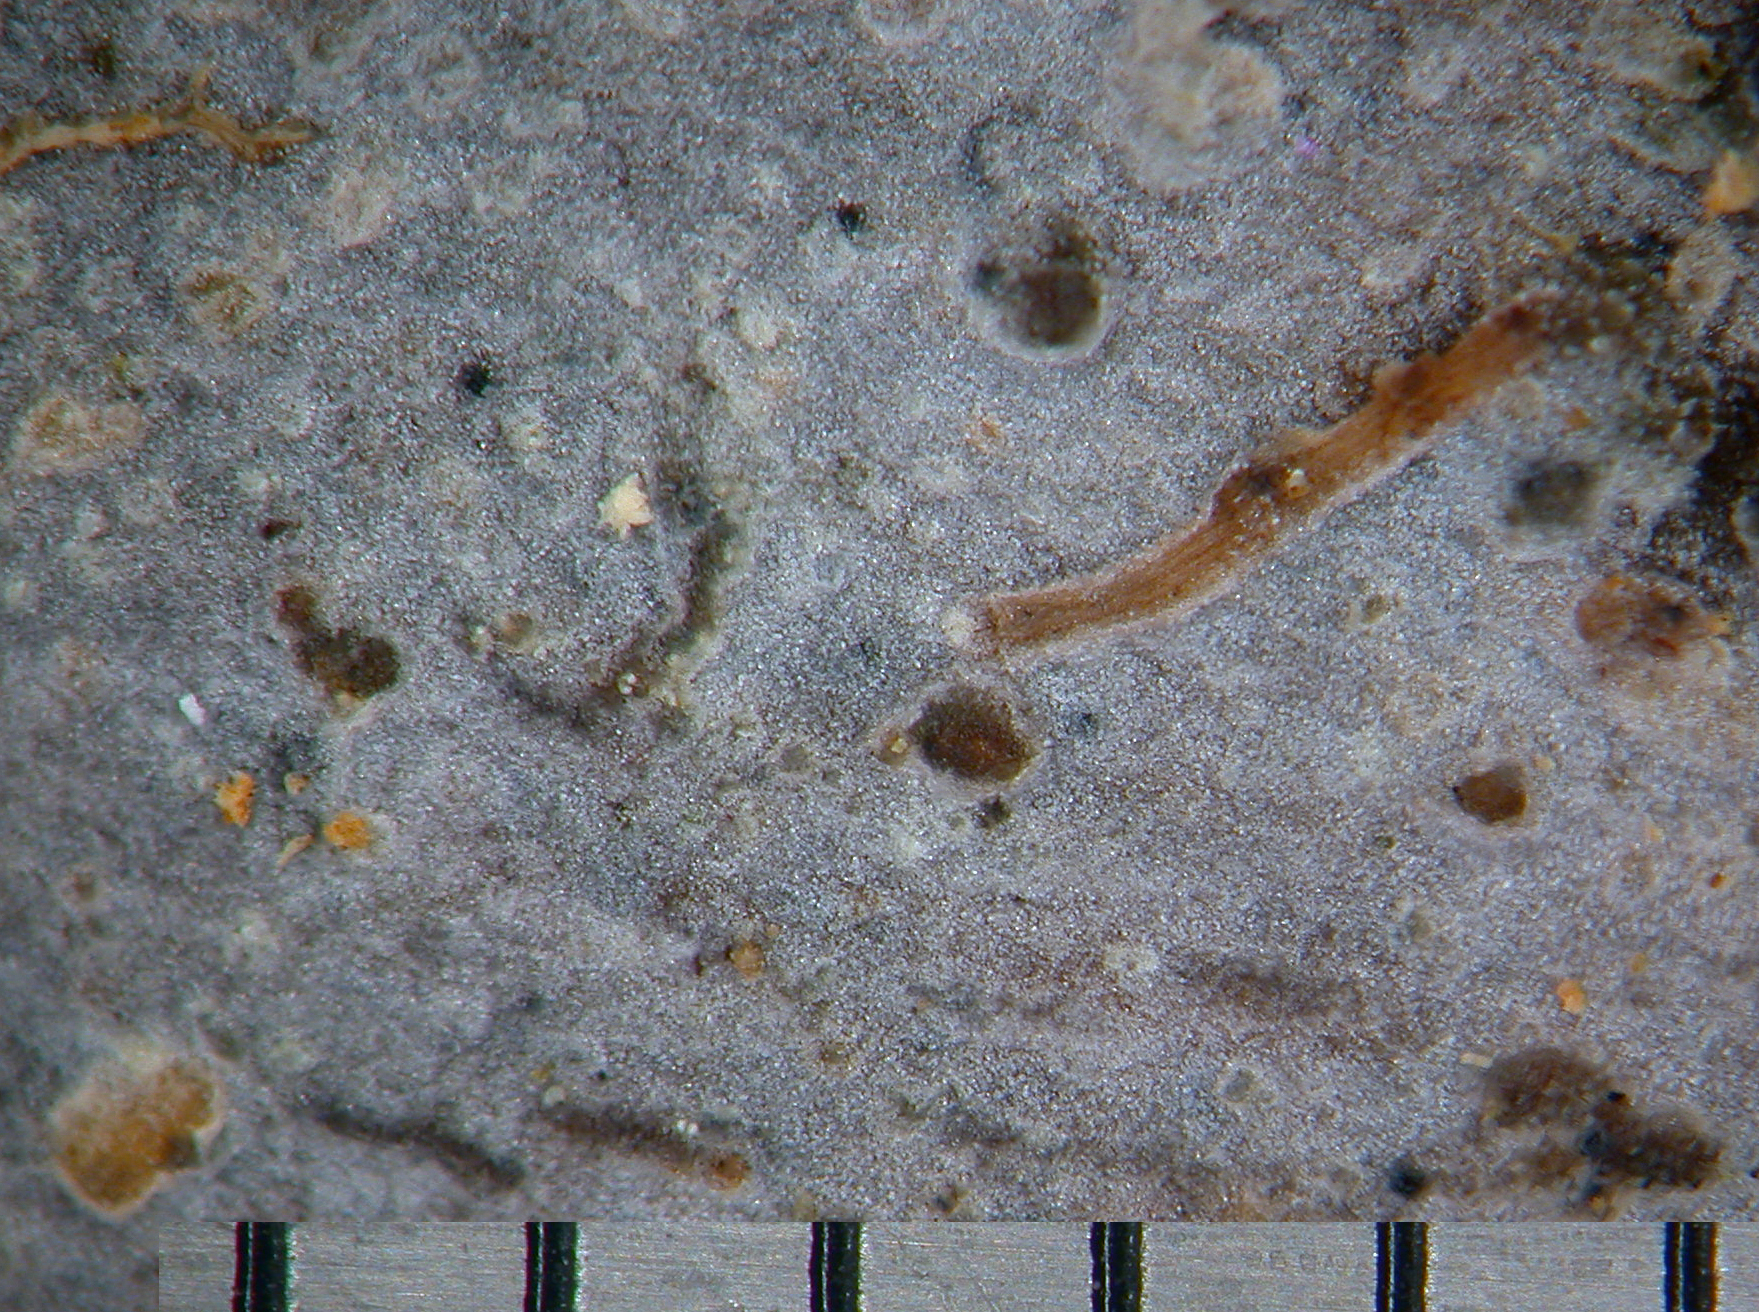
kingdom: Fungi
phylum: Basidiomycota
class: Agaricomycetes
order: Polyporales
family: Hyphodermataceae
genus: Hyphoderma
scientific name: Hyphoderma
